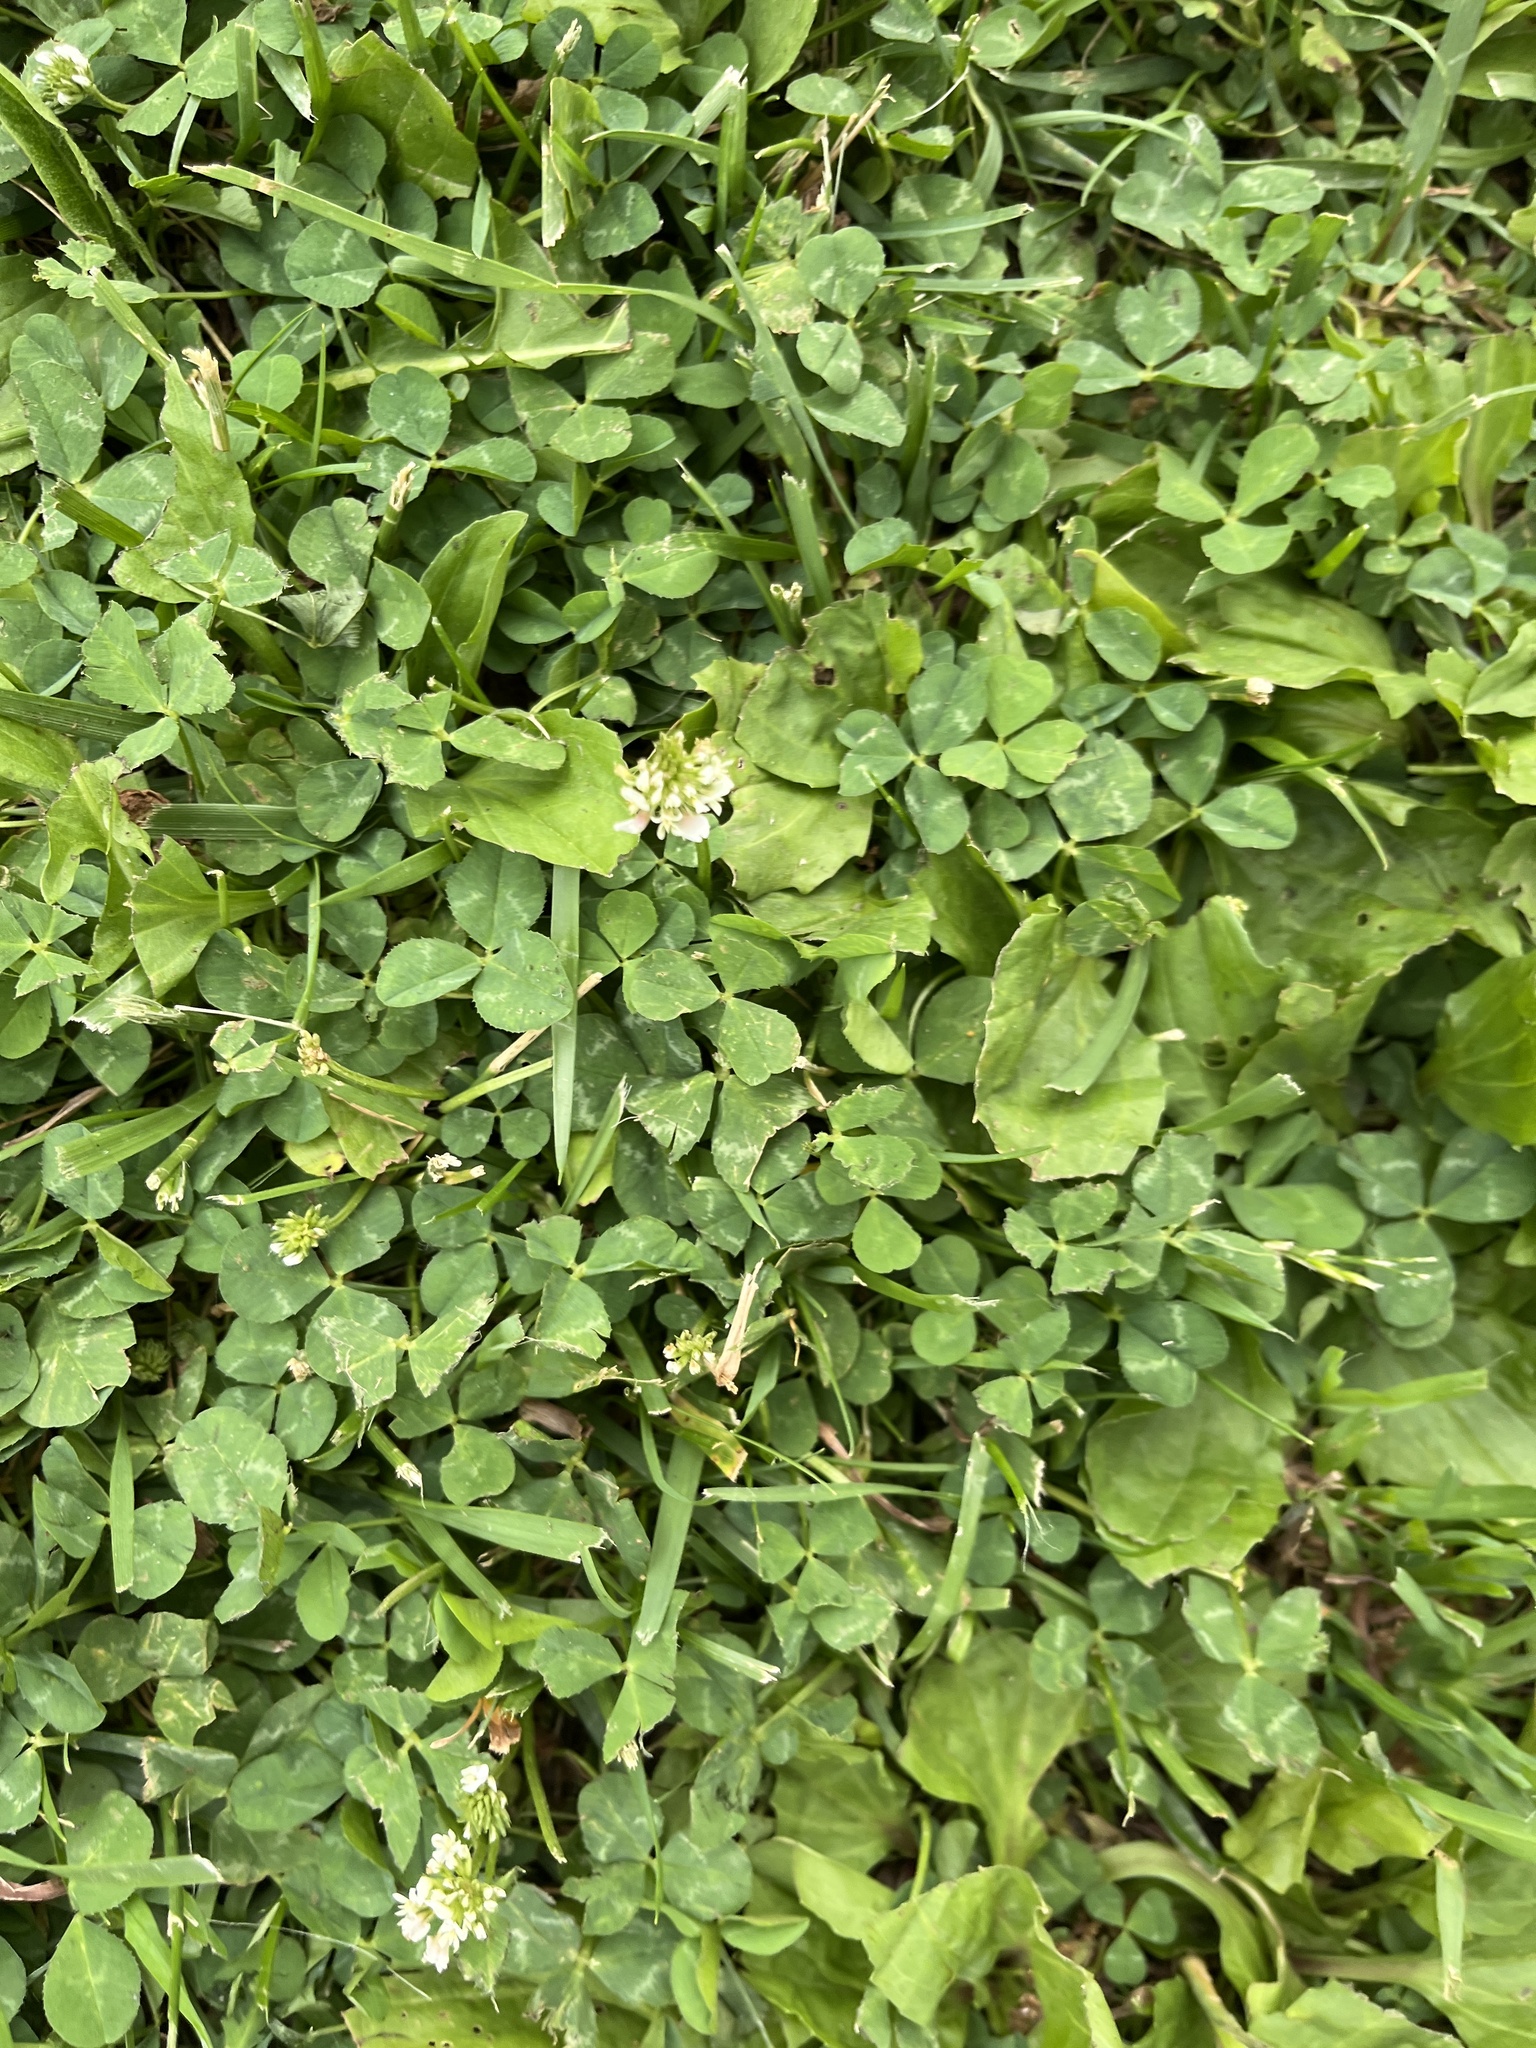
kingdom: Plantae
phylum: Tracheophyta
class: Magnoliopsida
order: Fabales
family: Fabaceae
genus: Trifolium
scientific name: Trifolium repens
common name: White clover
